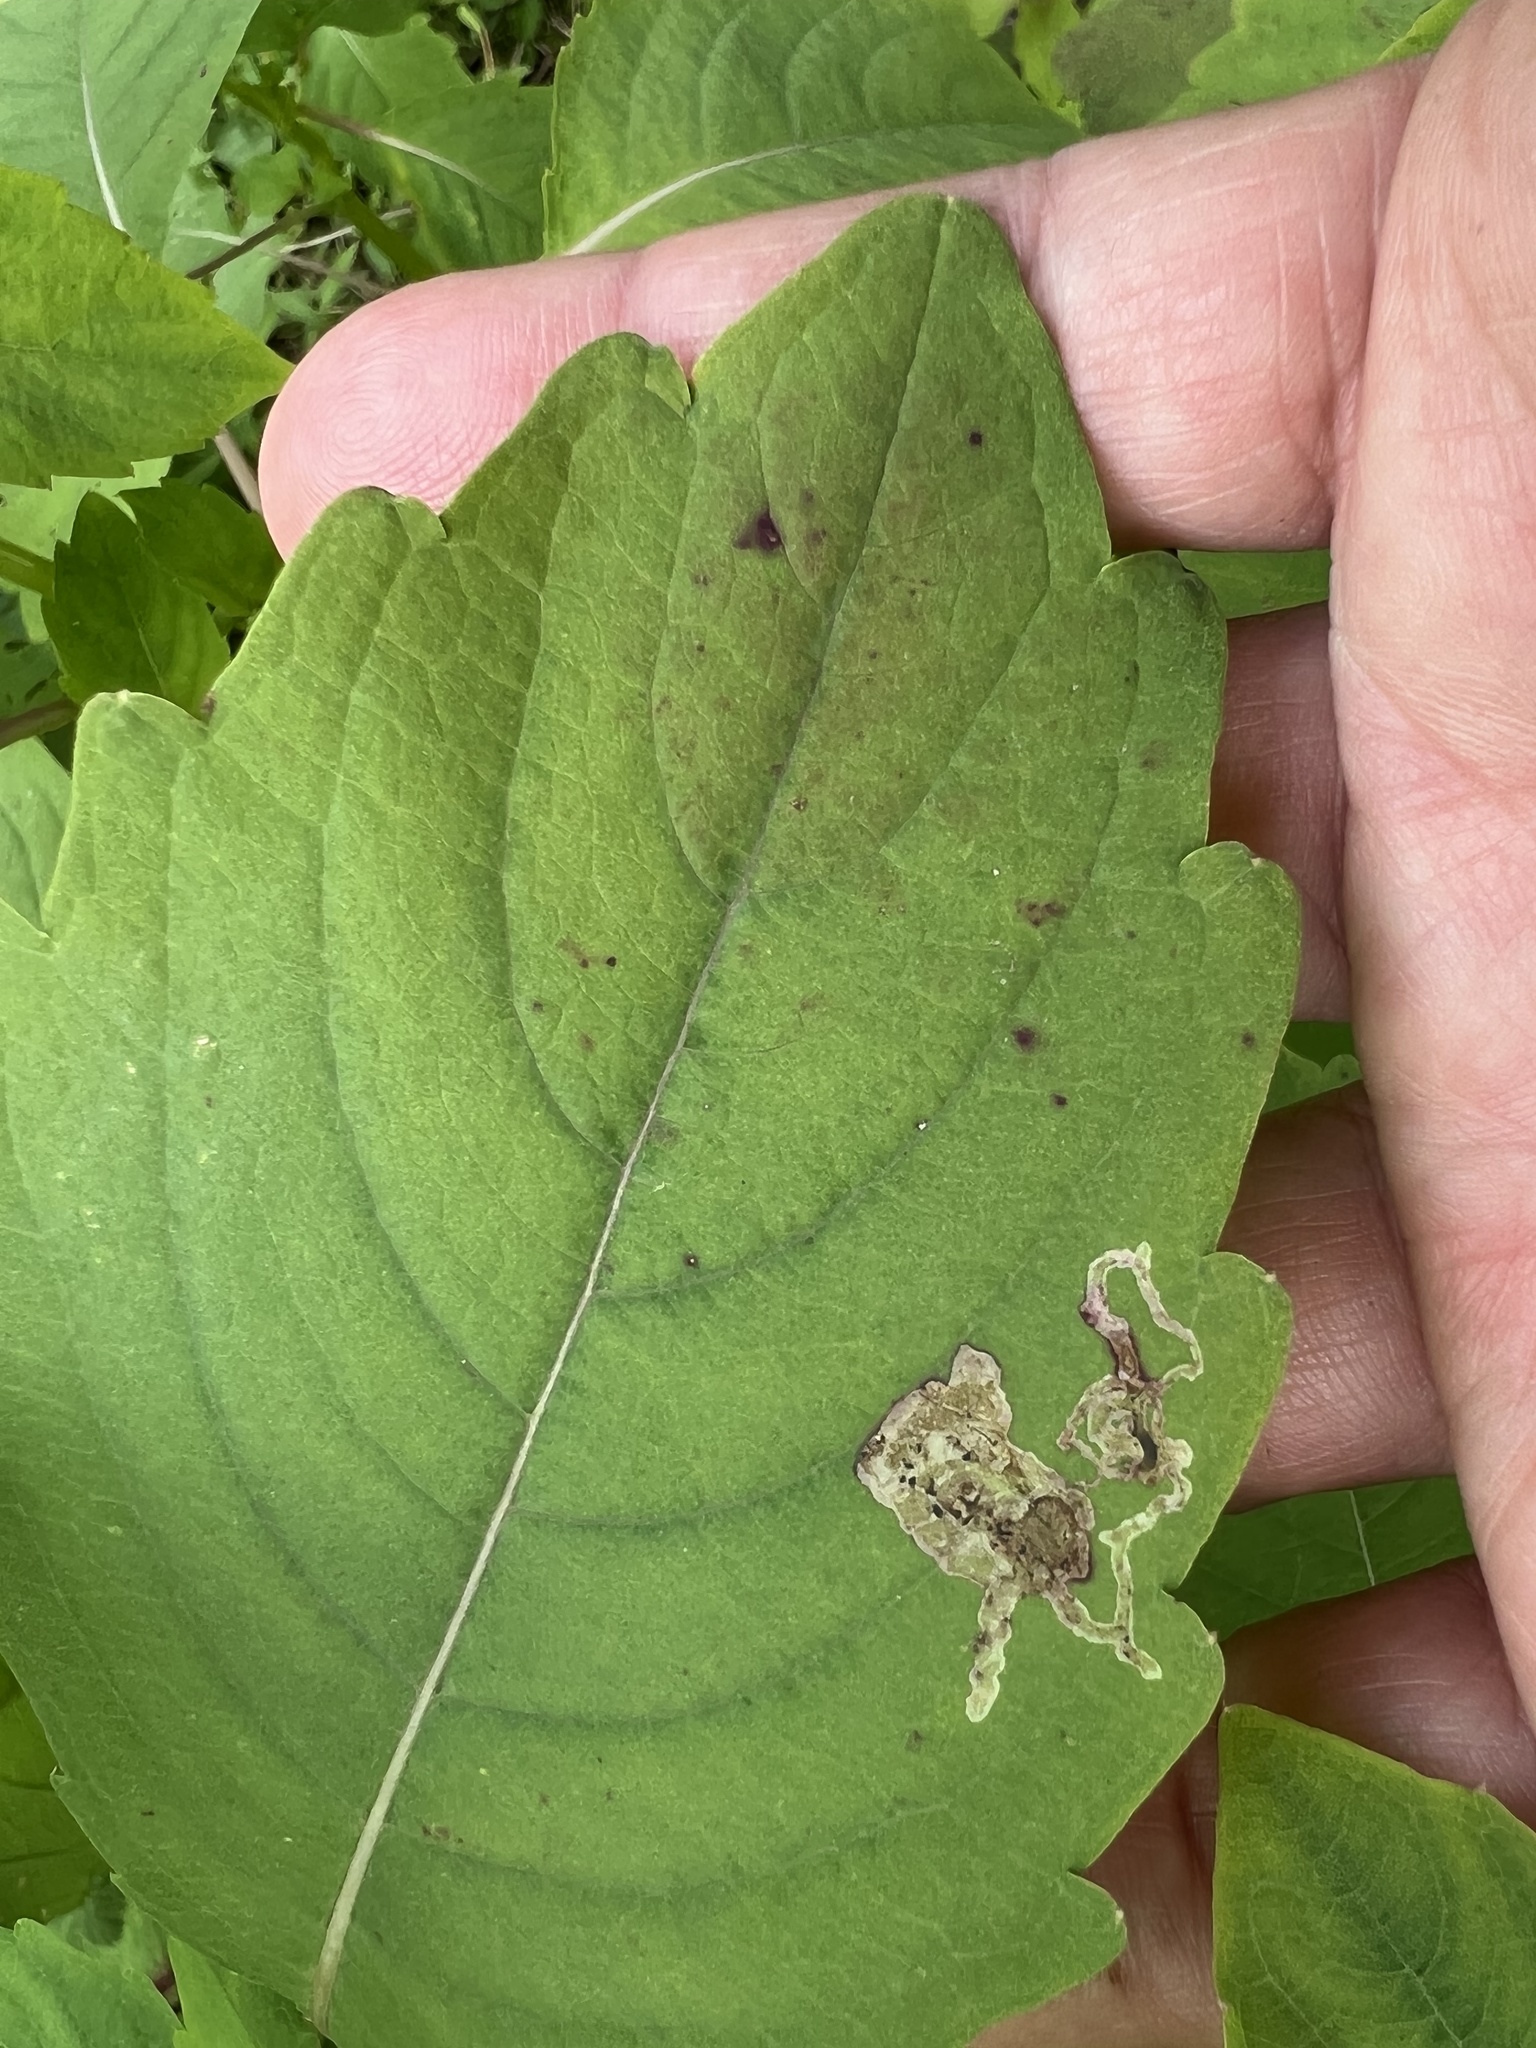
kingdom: Animalia
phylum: Arthropoda
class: Insecta
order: Diptera
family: Agromyzidae
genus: Phytoliriomyza
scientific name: Phytoliriomyza melampyga
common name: Jewelweed leaf-miner fly
